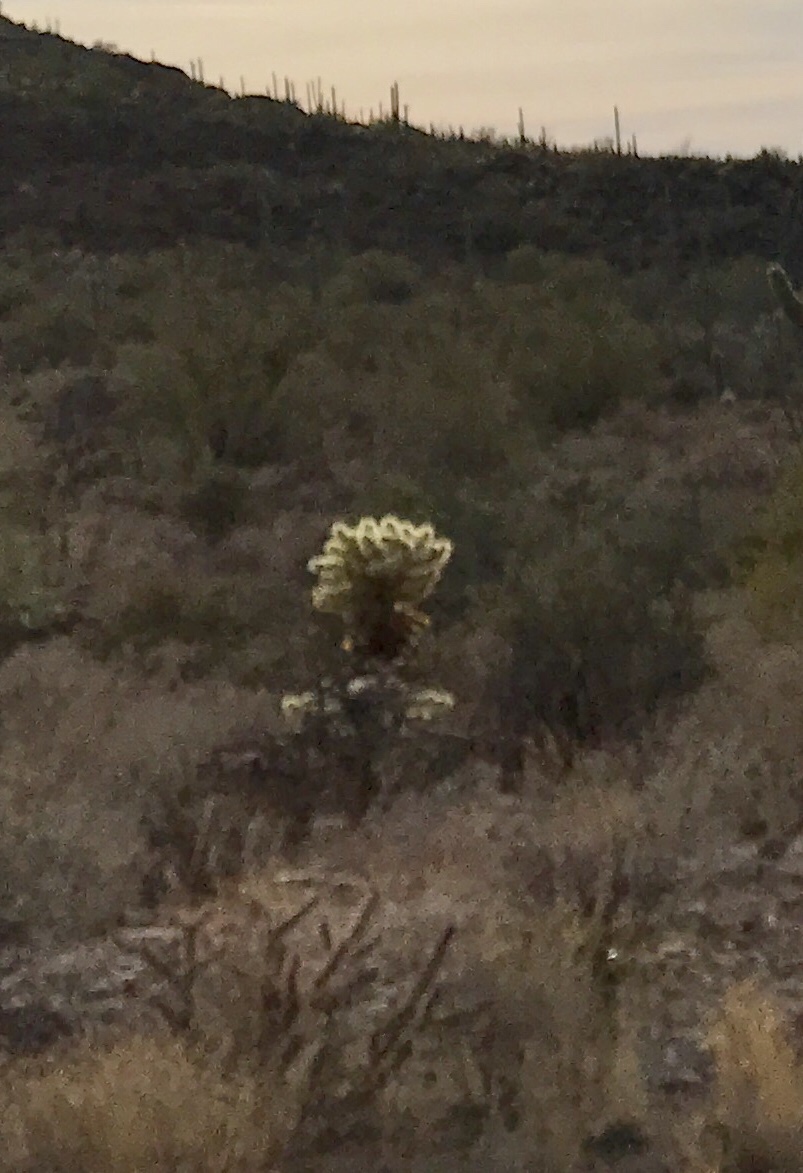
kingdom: Plantae
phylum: Tracheophyta
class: Magnoliopsida
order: Caryophyllales
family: Cactaceae
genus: Cylindropuntia
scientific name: Cylindropuntia fosbergii
